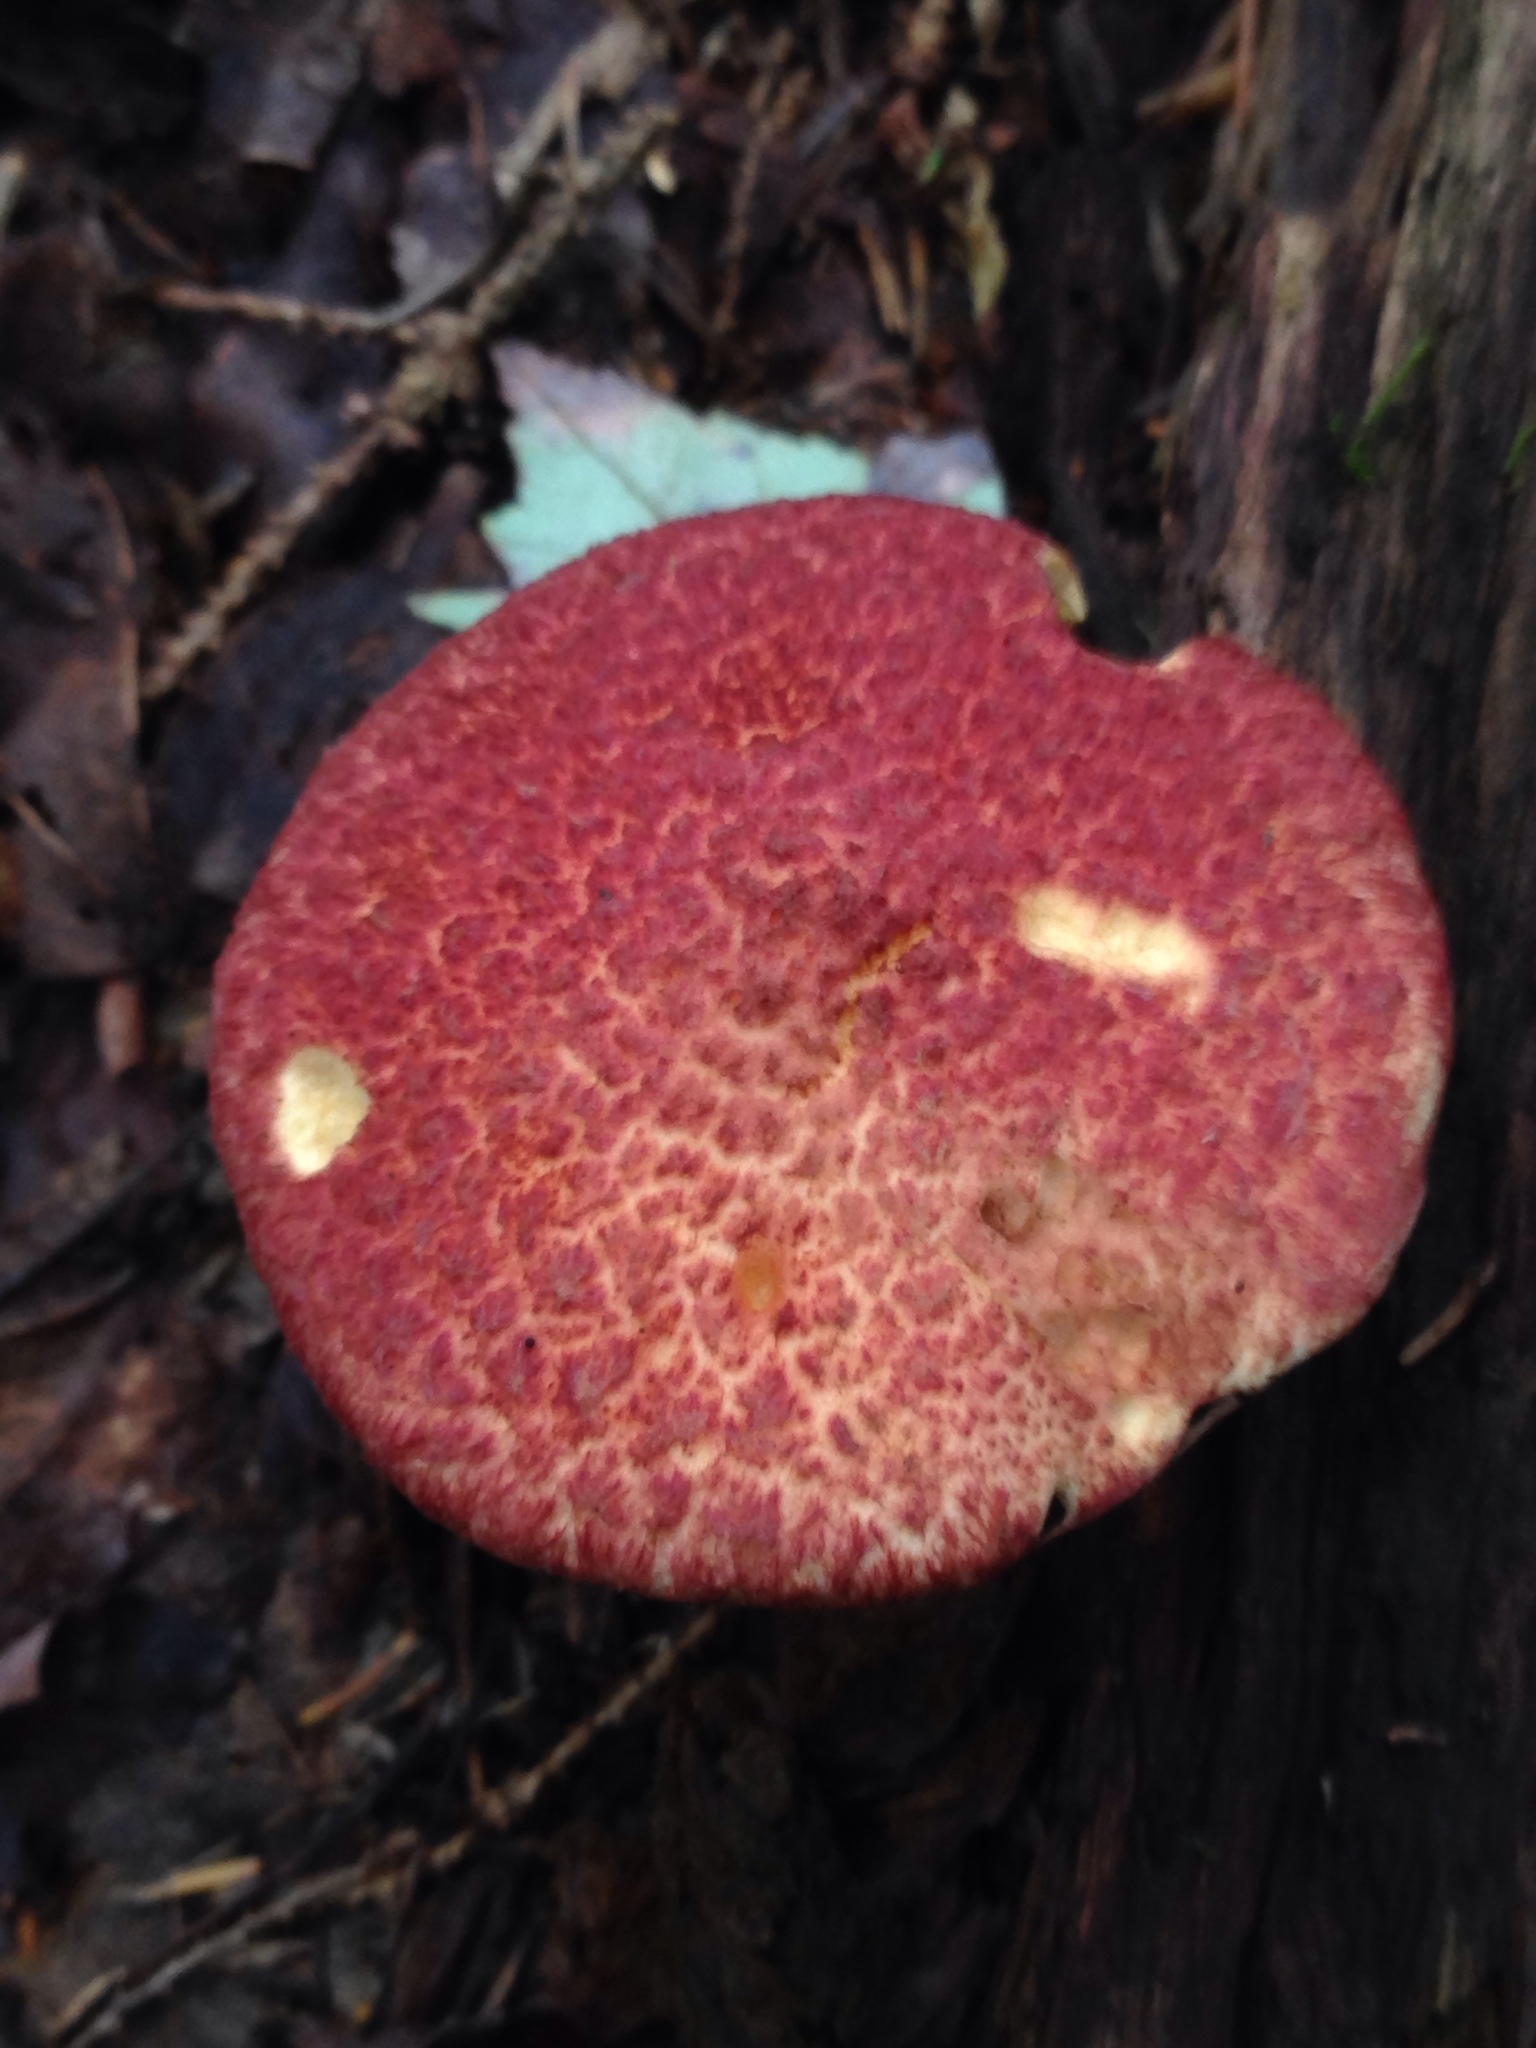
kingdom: Fungi
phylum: Basidiomycota
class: Agaricomycetes
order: Boletales
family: Suillaceae
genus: Suillus
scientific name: Suillus spraguei
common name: Painted suillus
